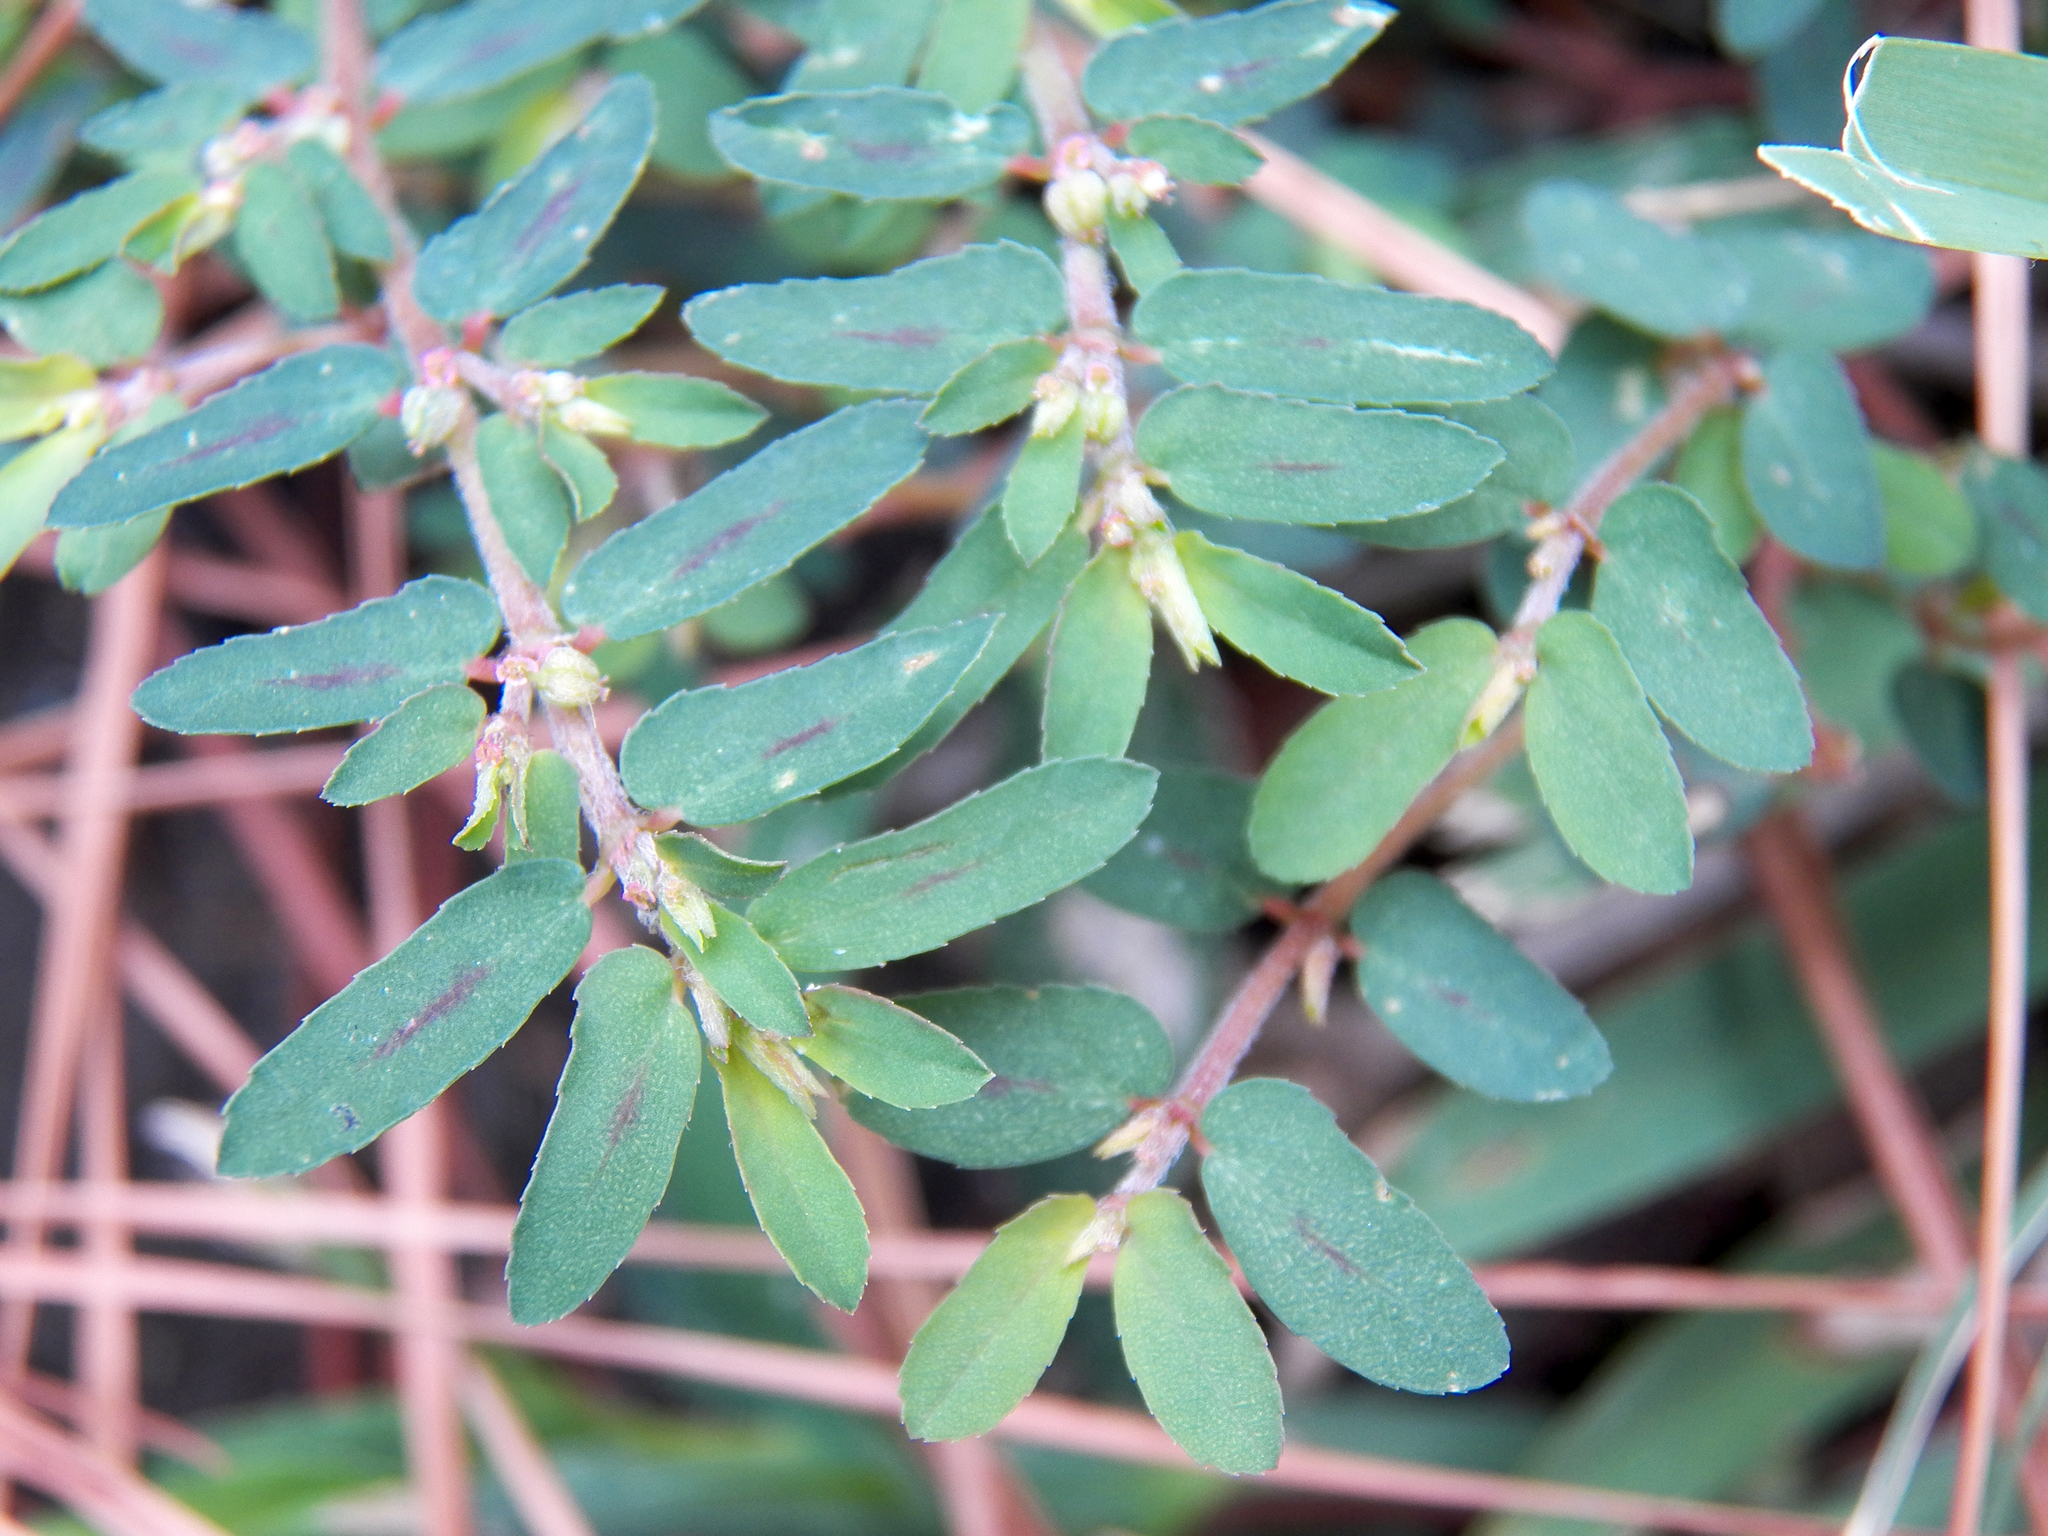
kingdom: Plantae
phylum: Tracheophyta
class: Magnoliopsida
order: Malpighiales
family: Euphorbiaceae
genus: Euphorbia
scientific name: Euphorbia maculata
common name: Spotted spurge
